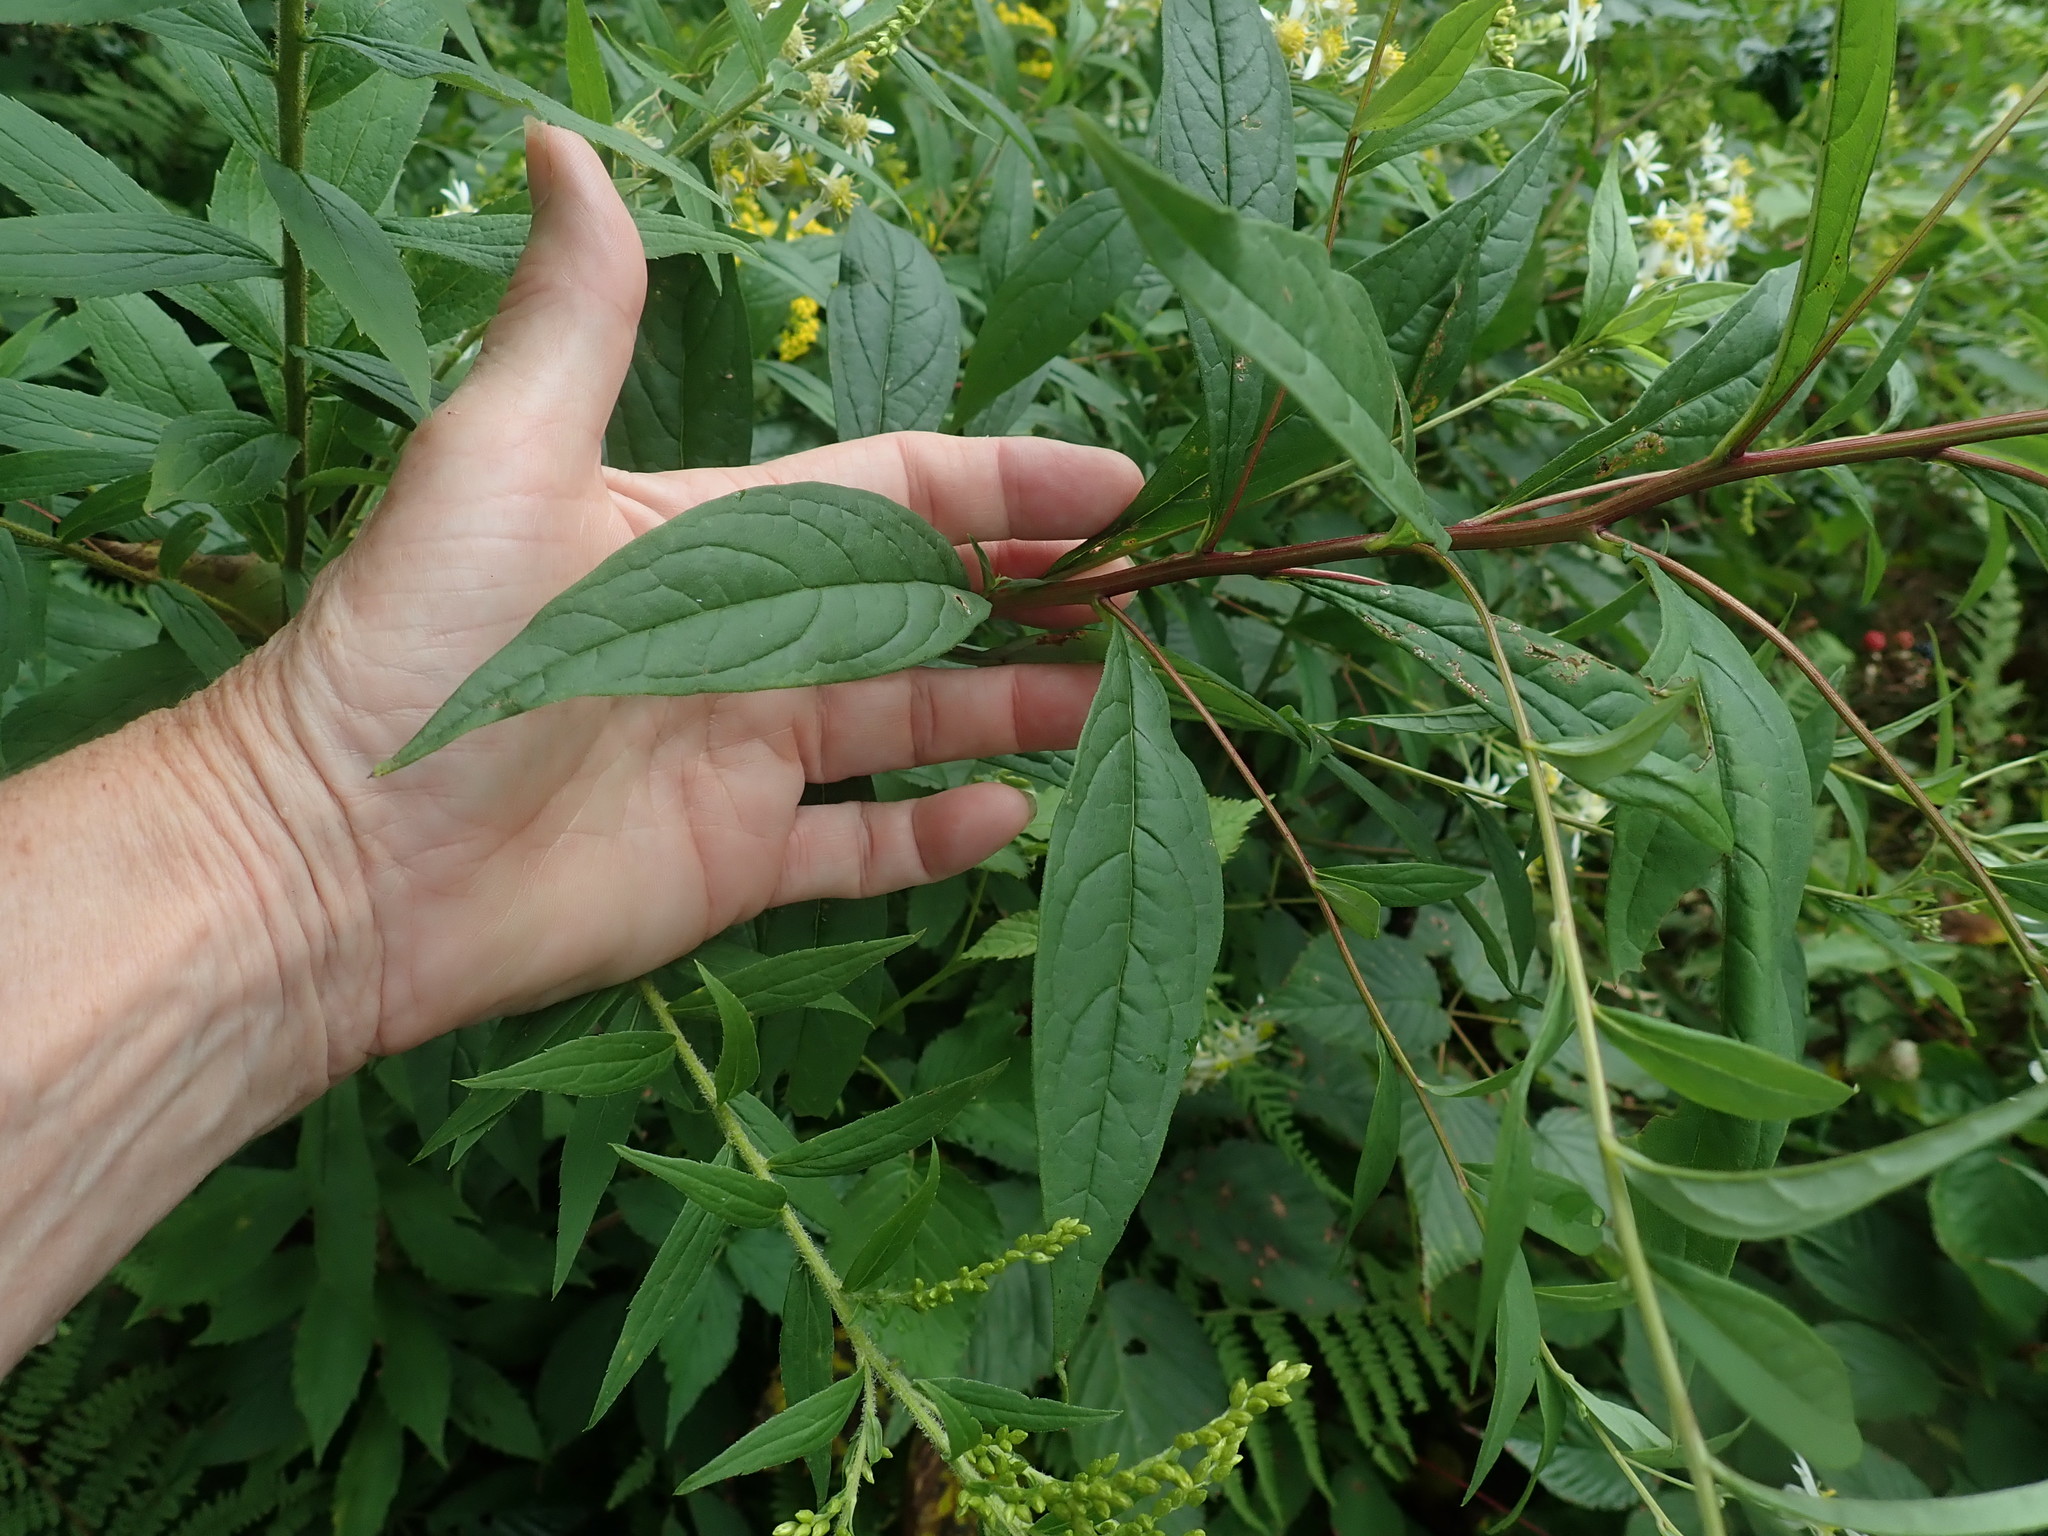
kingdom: Plantae
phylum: Tracheophyta
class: Magnoliopsida
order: Asterales
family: Asteraceae
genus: Doellingeria
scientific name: Doellingeria umbellata
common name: Flat-top white aster
